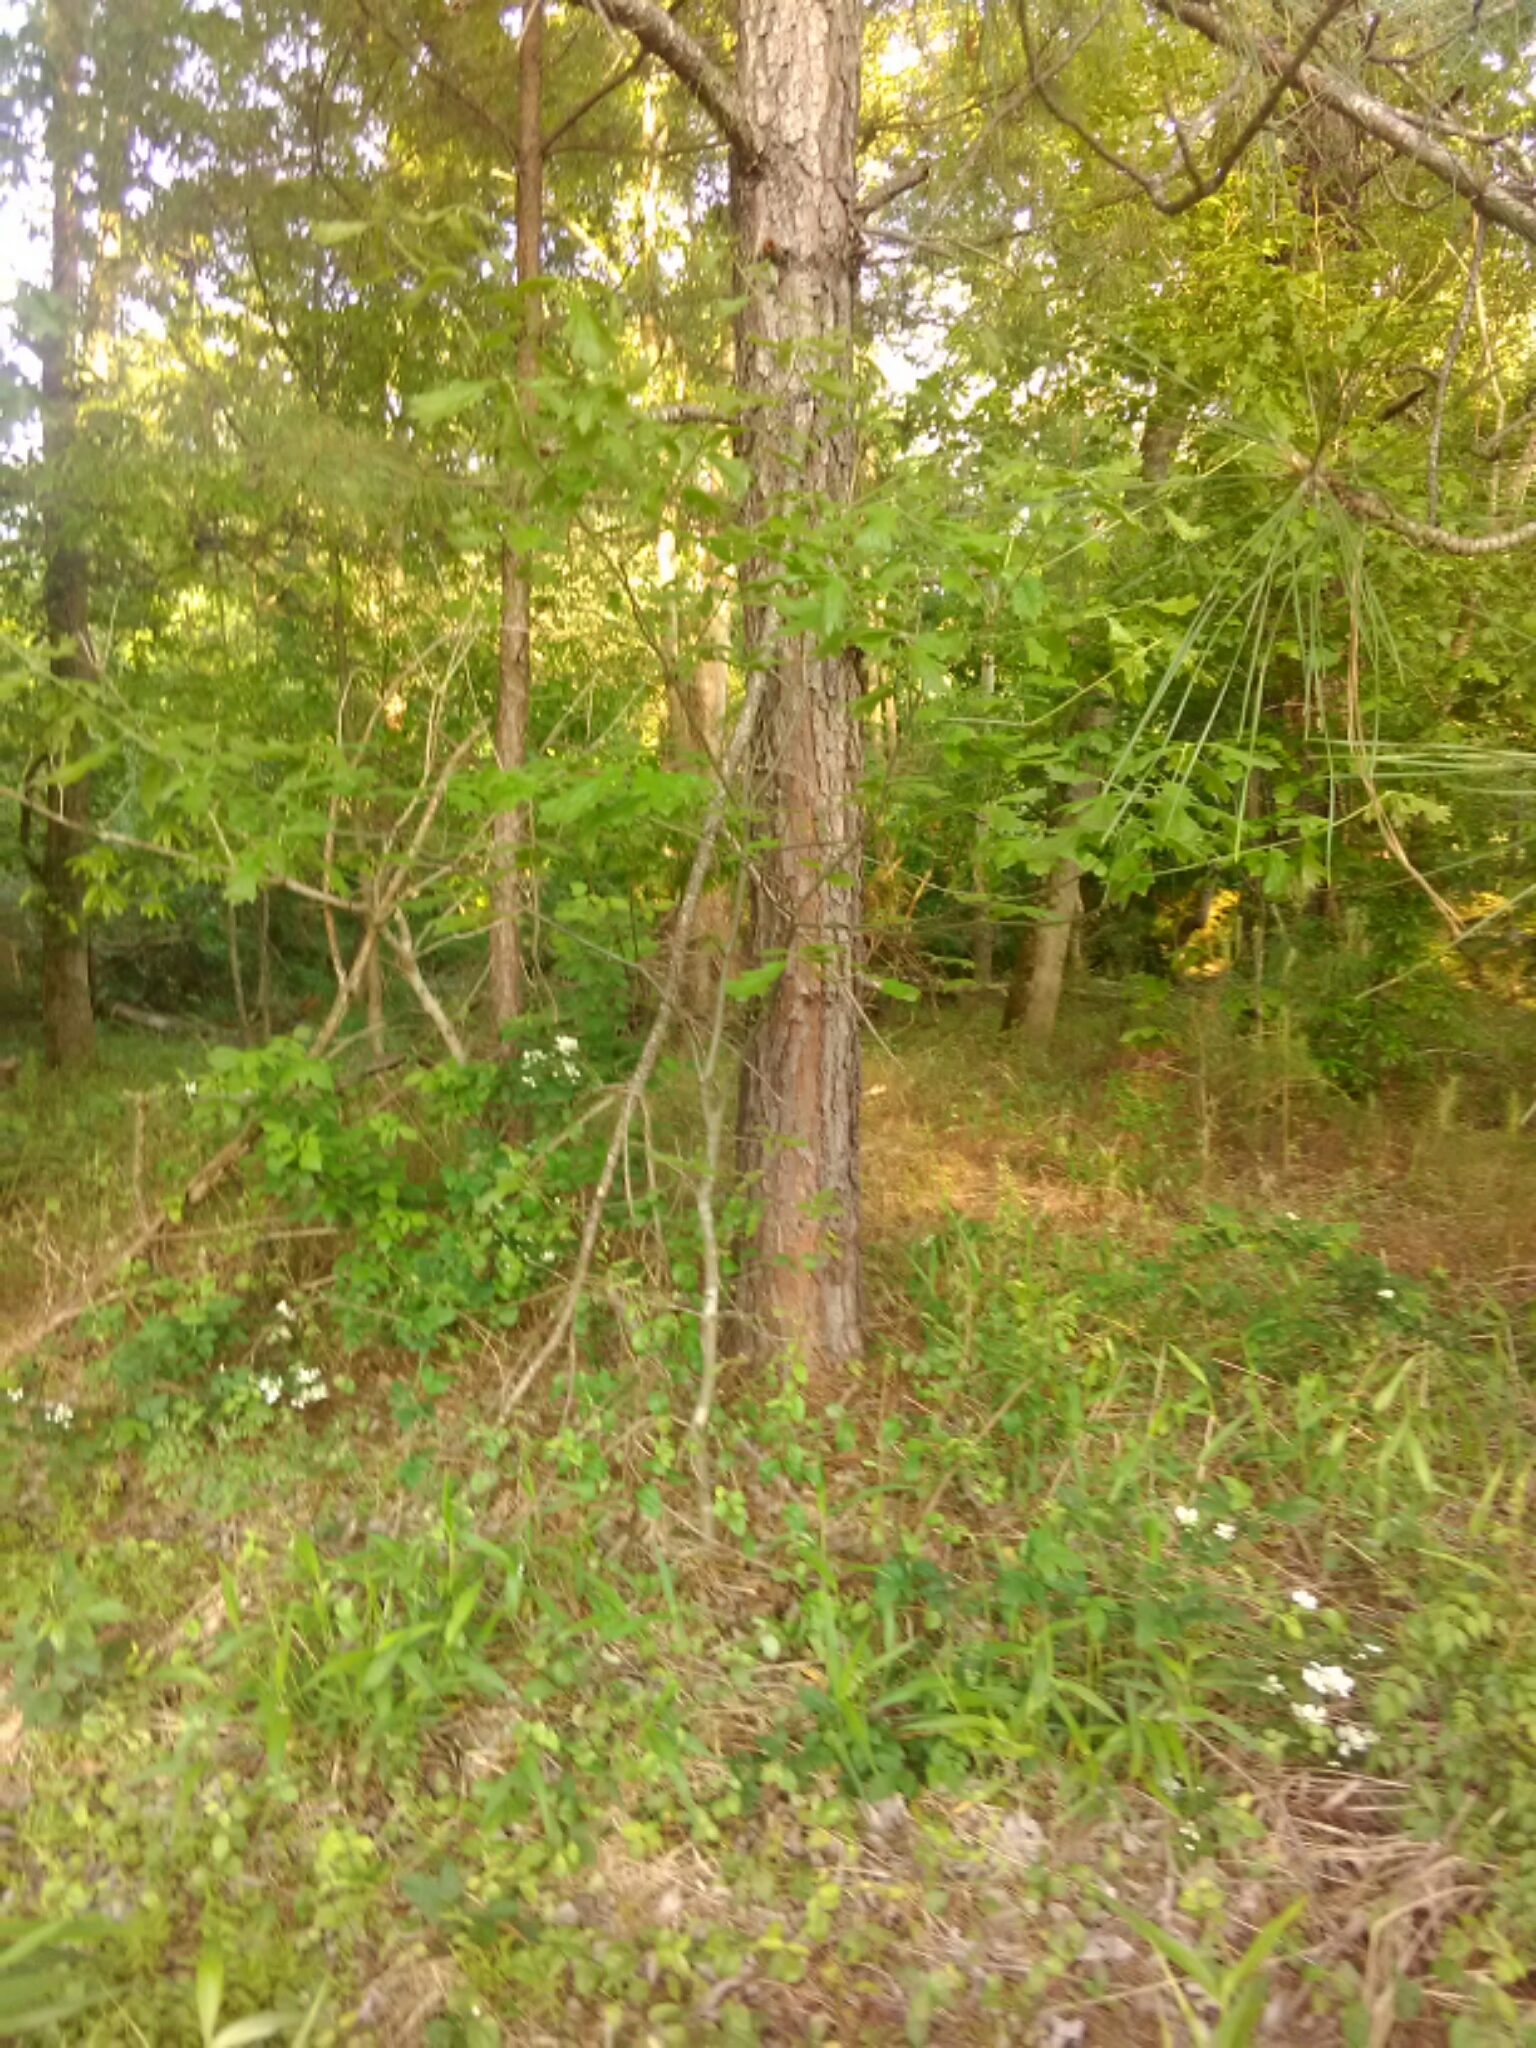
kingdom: Plantae
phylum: Tracheophyta
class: Pinopsida
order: Pinales
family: Pinaceae
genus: Pinus
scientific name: Pinus taeda
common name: Loblolly pine
